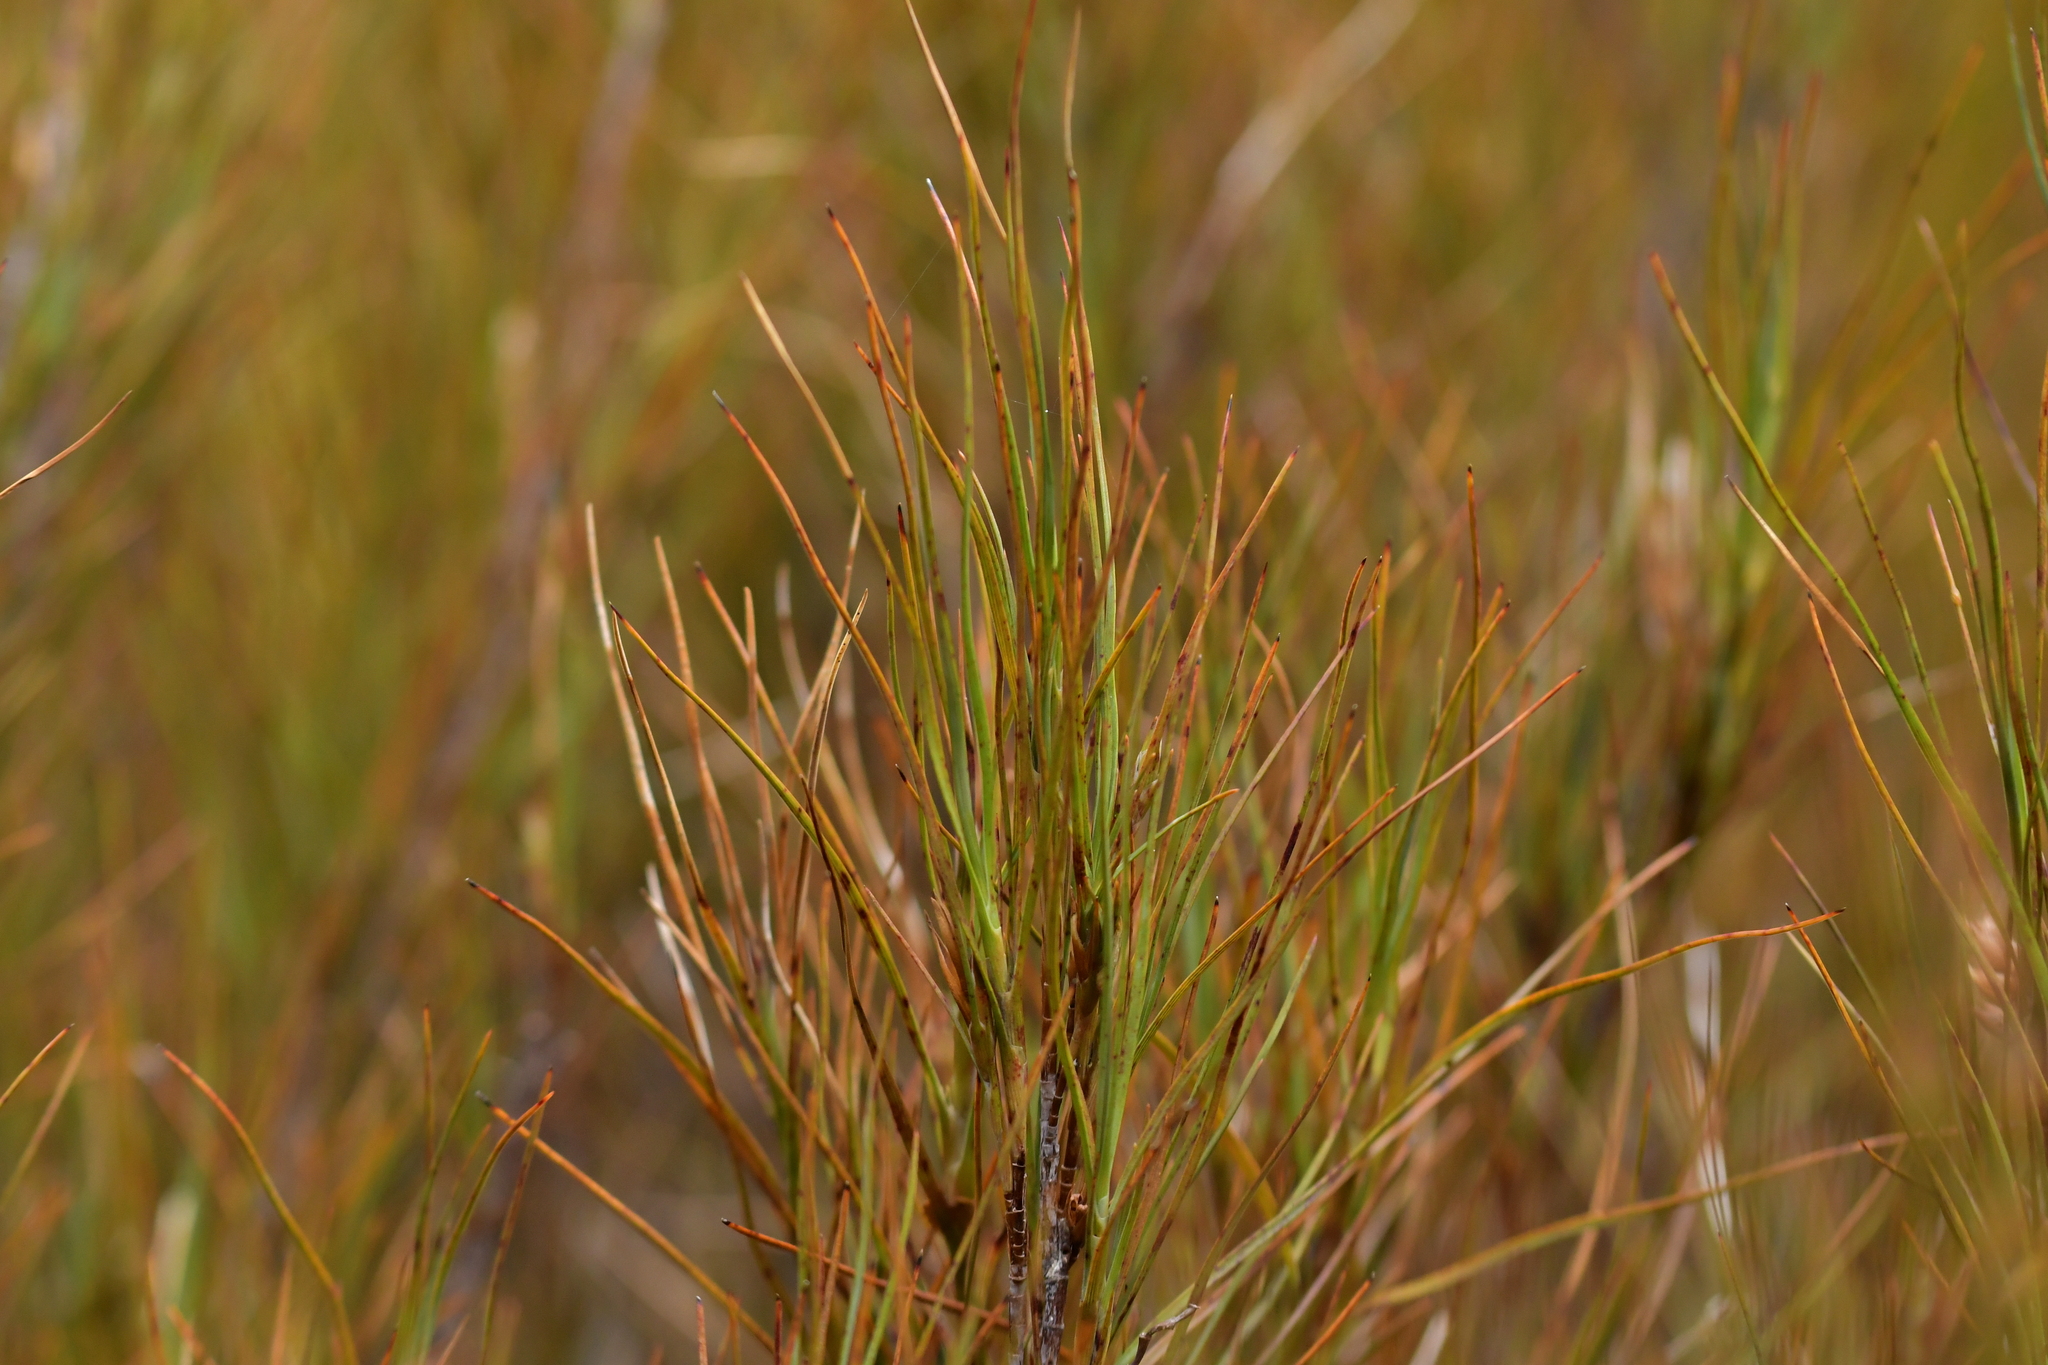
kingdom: Plantae
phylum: Tracheophyta
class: Magnoliopsida
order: Ericales
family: Ericaceae
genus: Dracophyllum
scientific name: Dracophyllum longifolium
